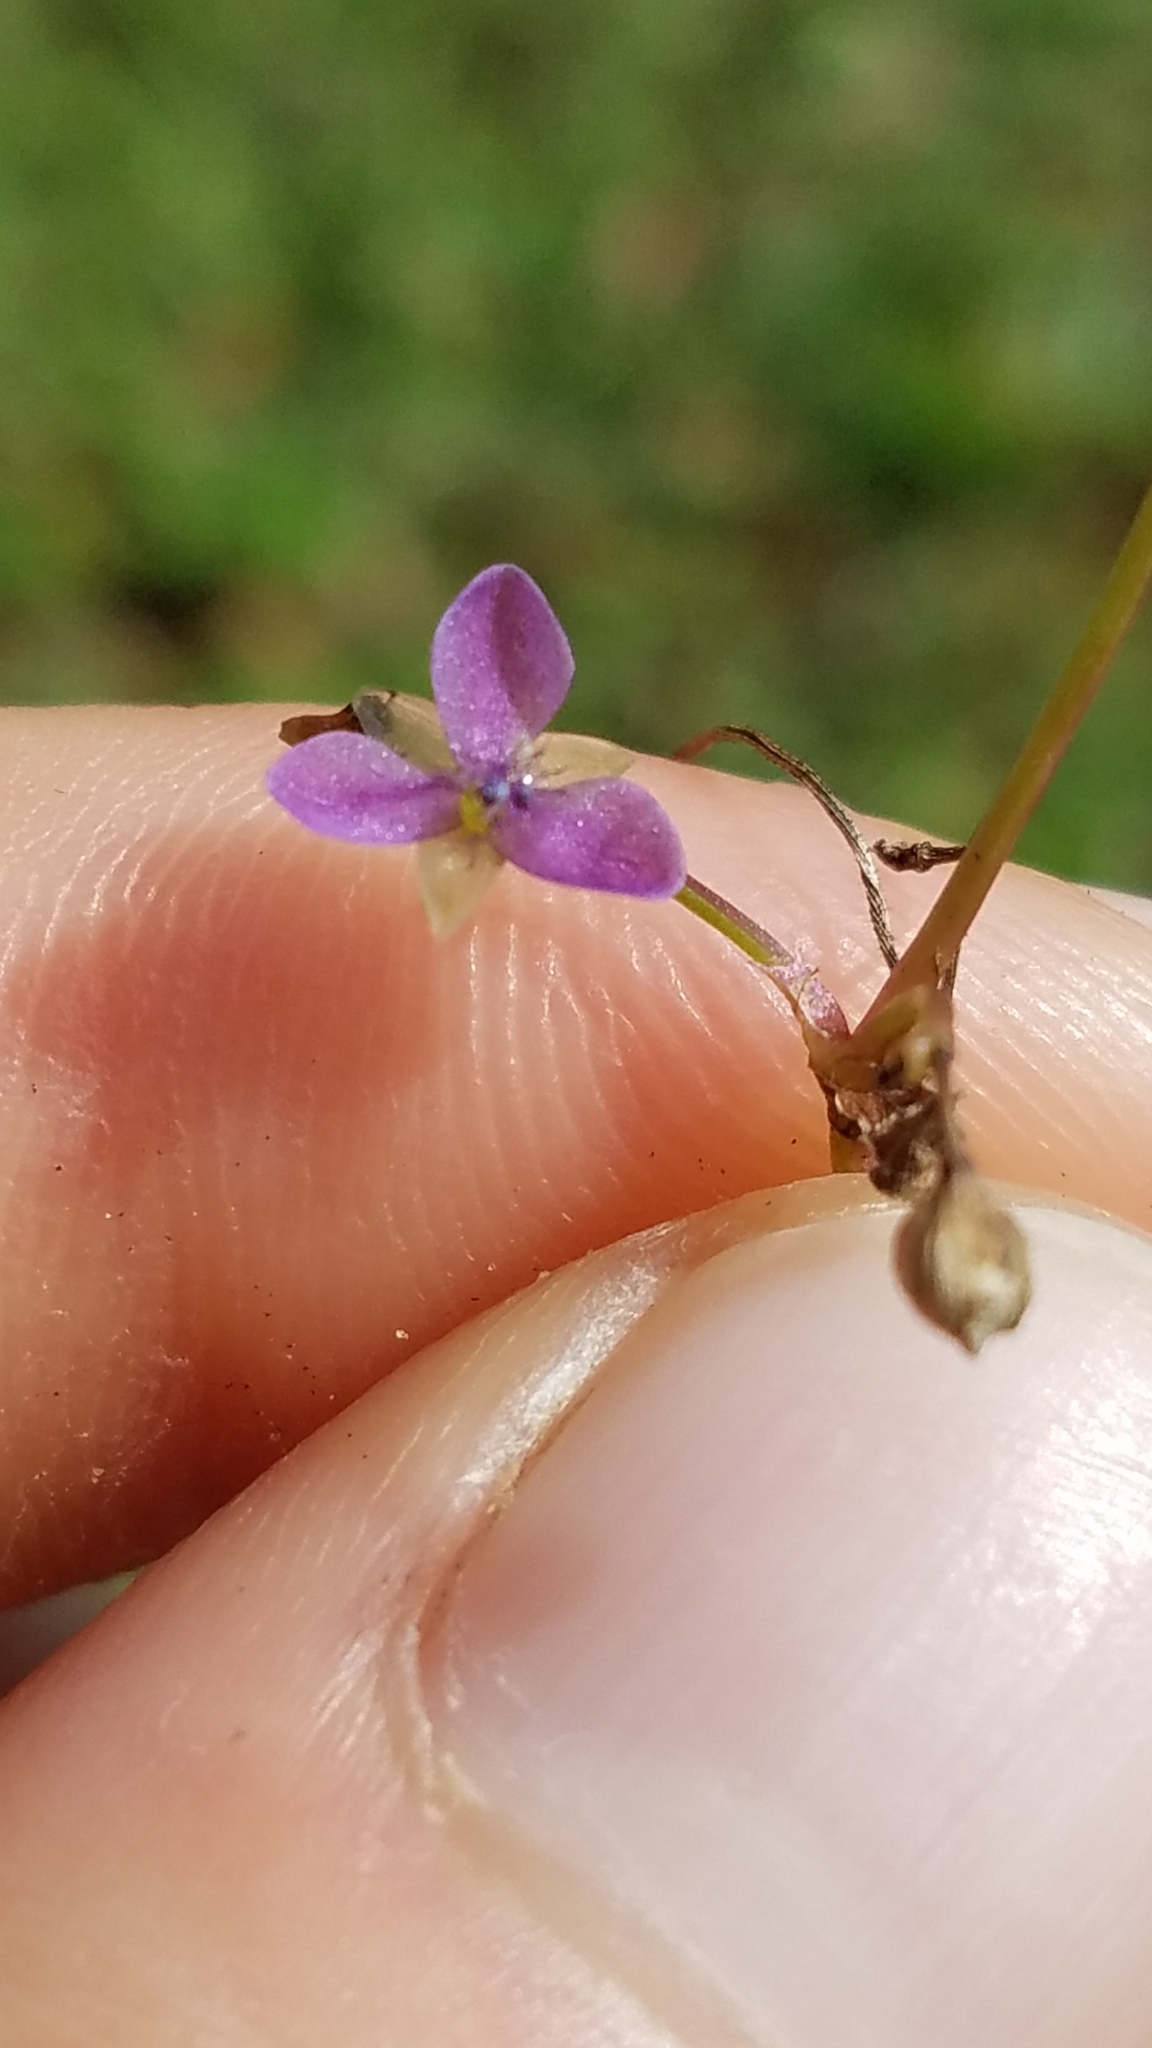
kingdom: Plantae
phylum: Tracheophyta
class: Liliopsida
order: Commelinales
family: Commelinaceae
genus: Murdannia
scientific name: Murdannia nudiflora
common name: Nakedstem dewflower
